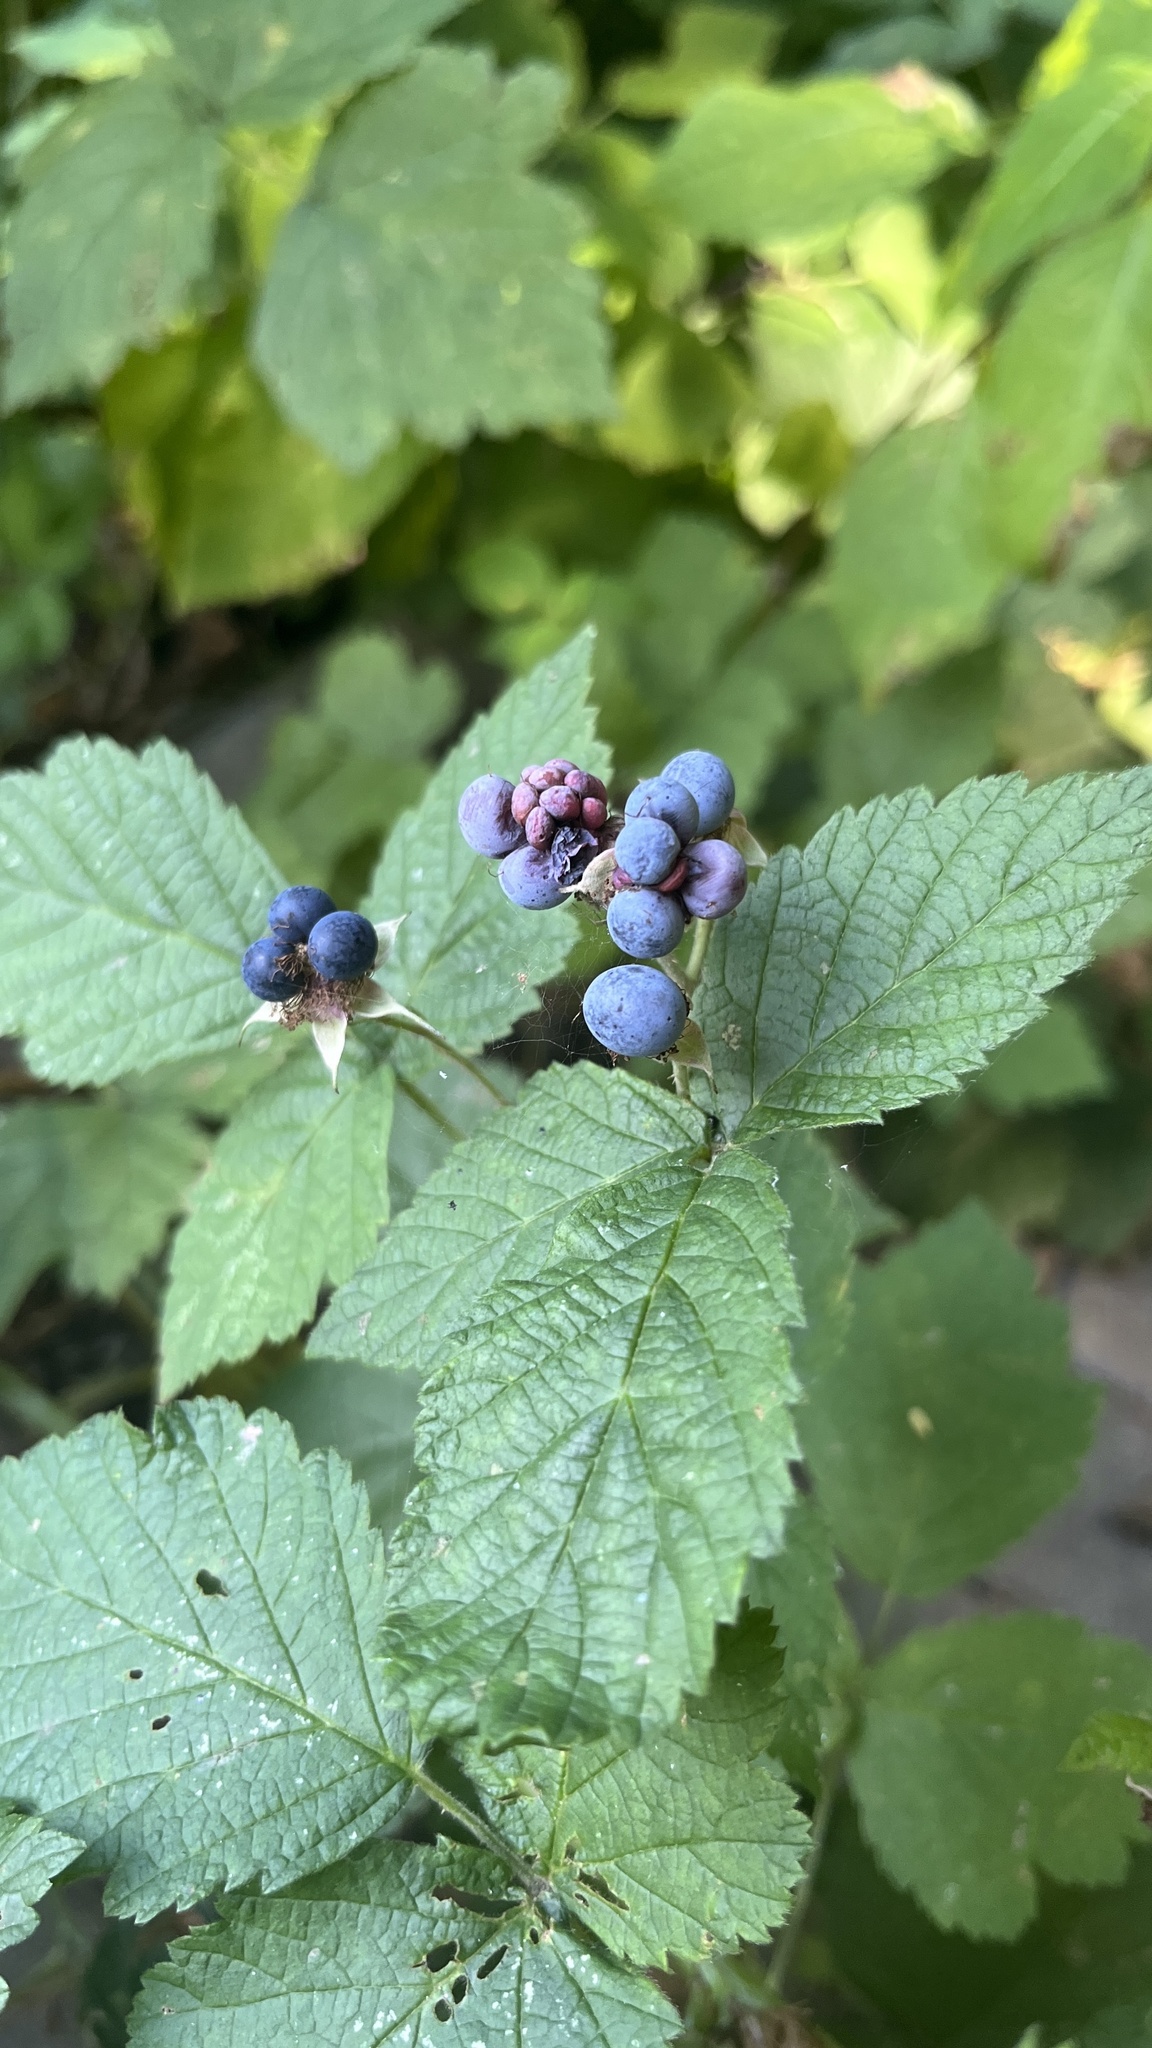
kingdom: Plantae
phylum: Tracheophyta
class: Magnoliopsida
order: Rosales
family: Rosaceae
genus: Rubus
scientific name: Rubus caesius
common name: Dewberry
